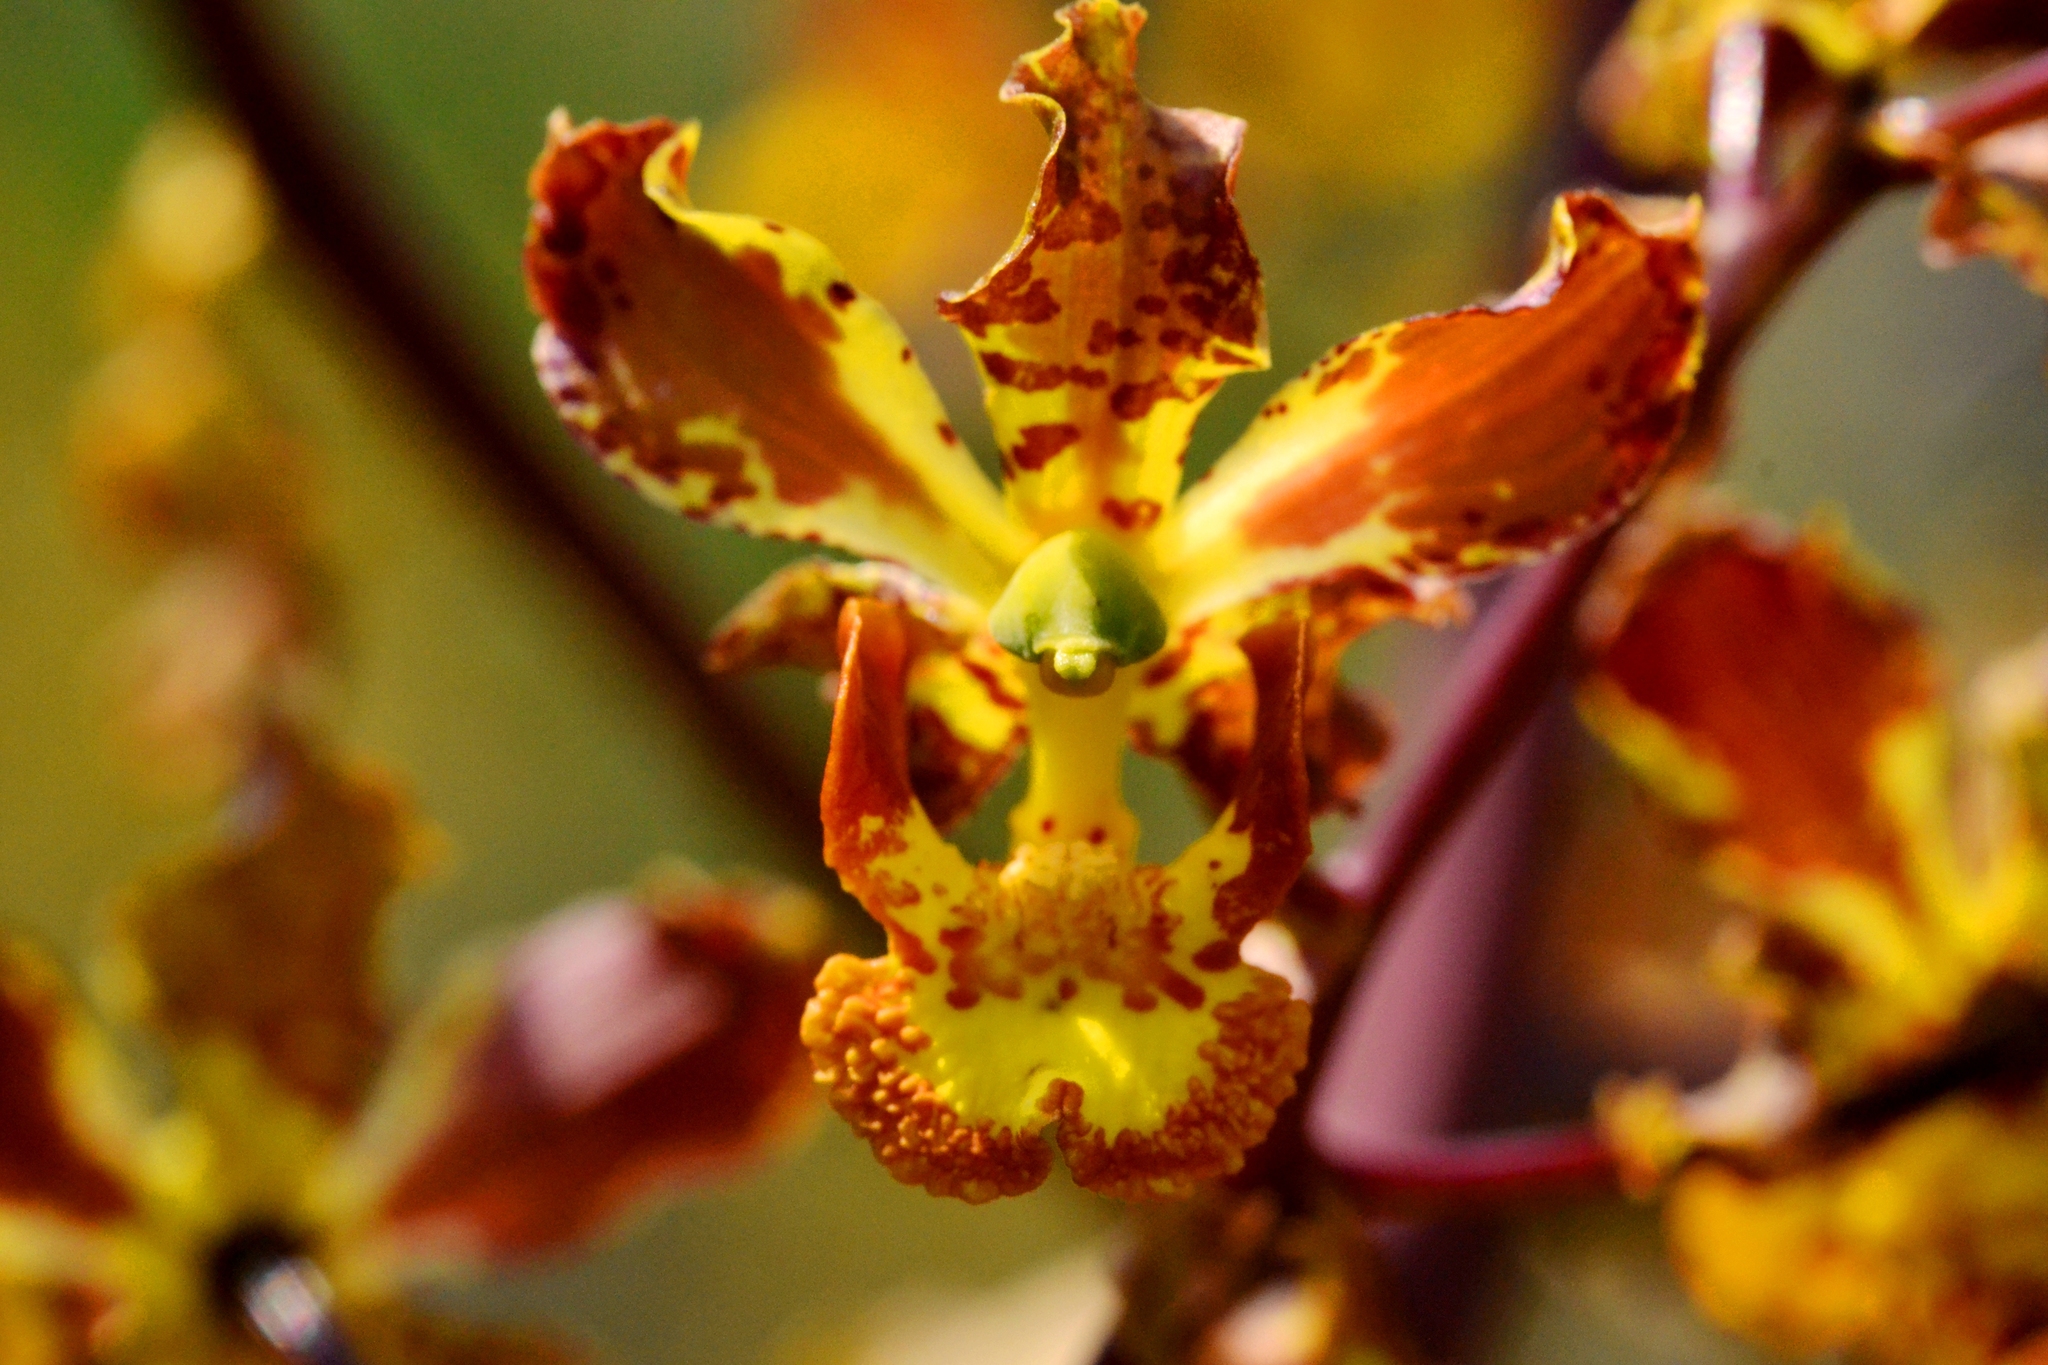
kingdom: Plantae
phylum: Tracheophyta
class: Liliopsida
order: Asparagales
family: Orchidaceae
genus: Cyrtopodium
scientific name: Cyrtopodium macrobulbon
